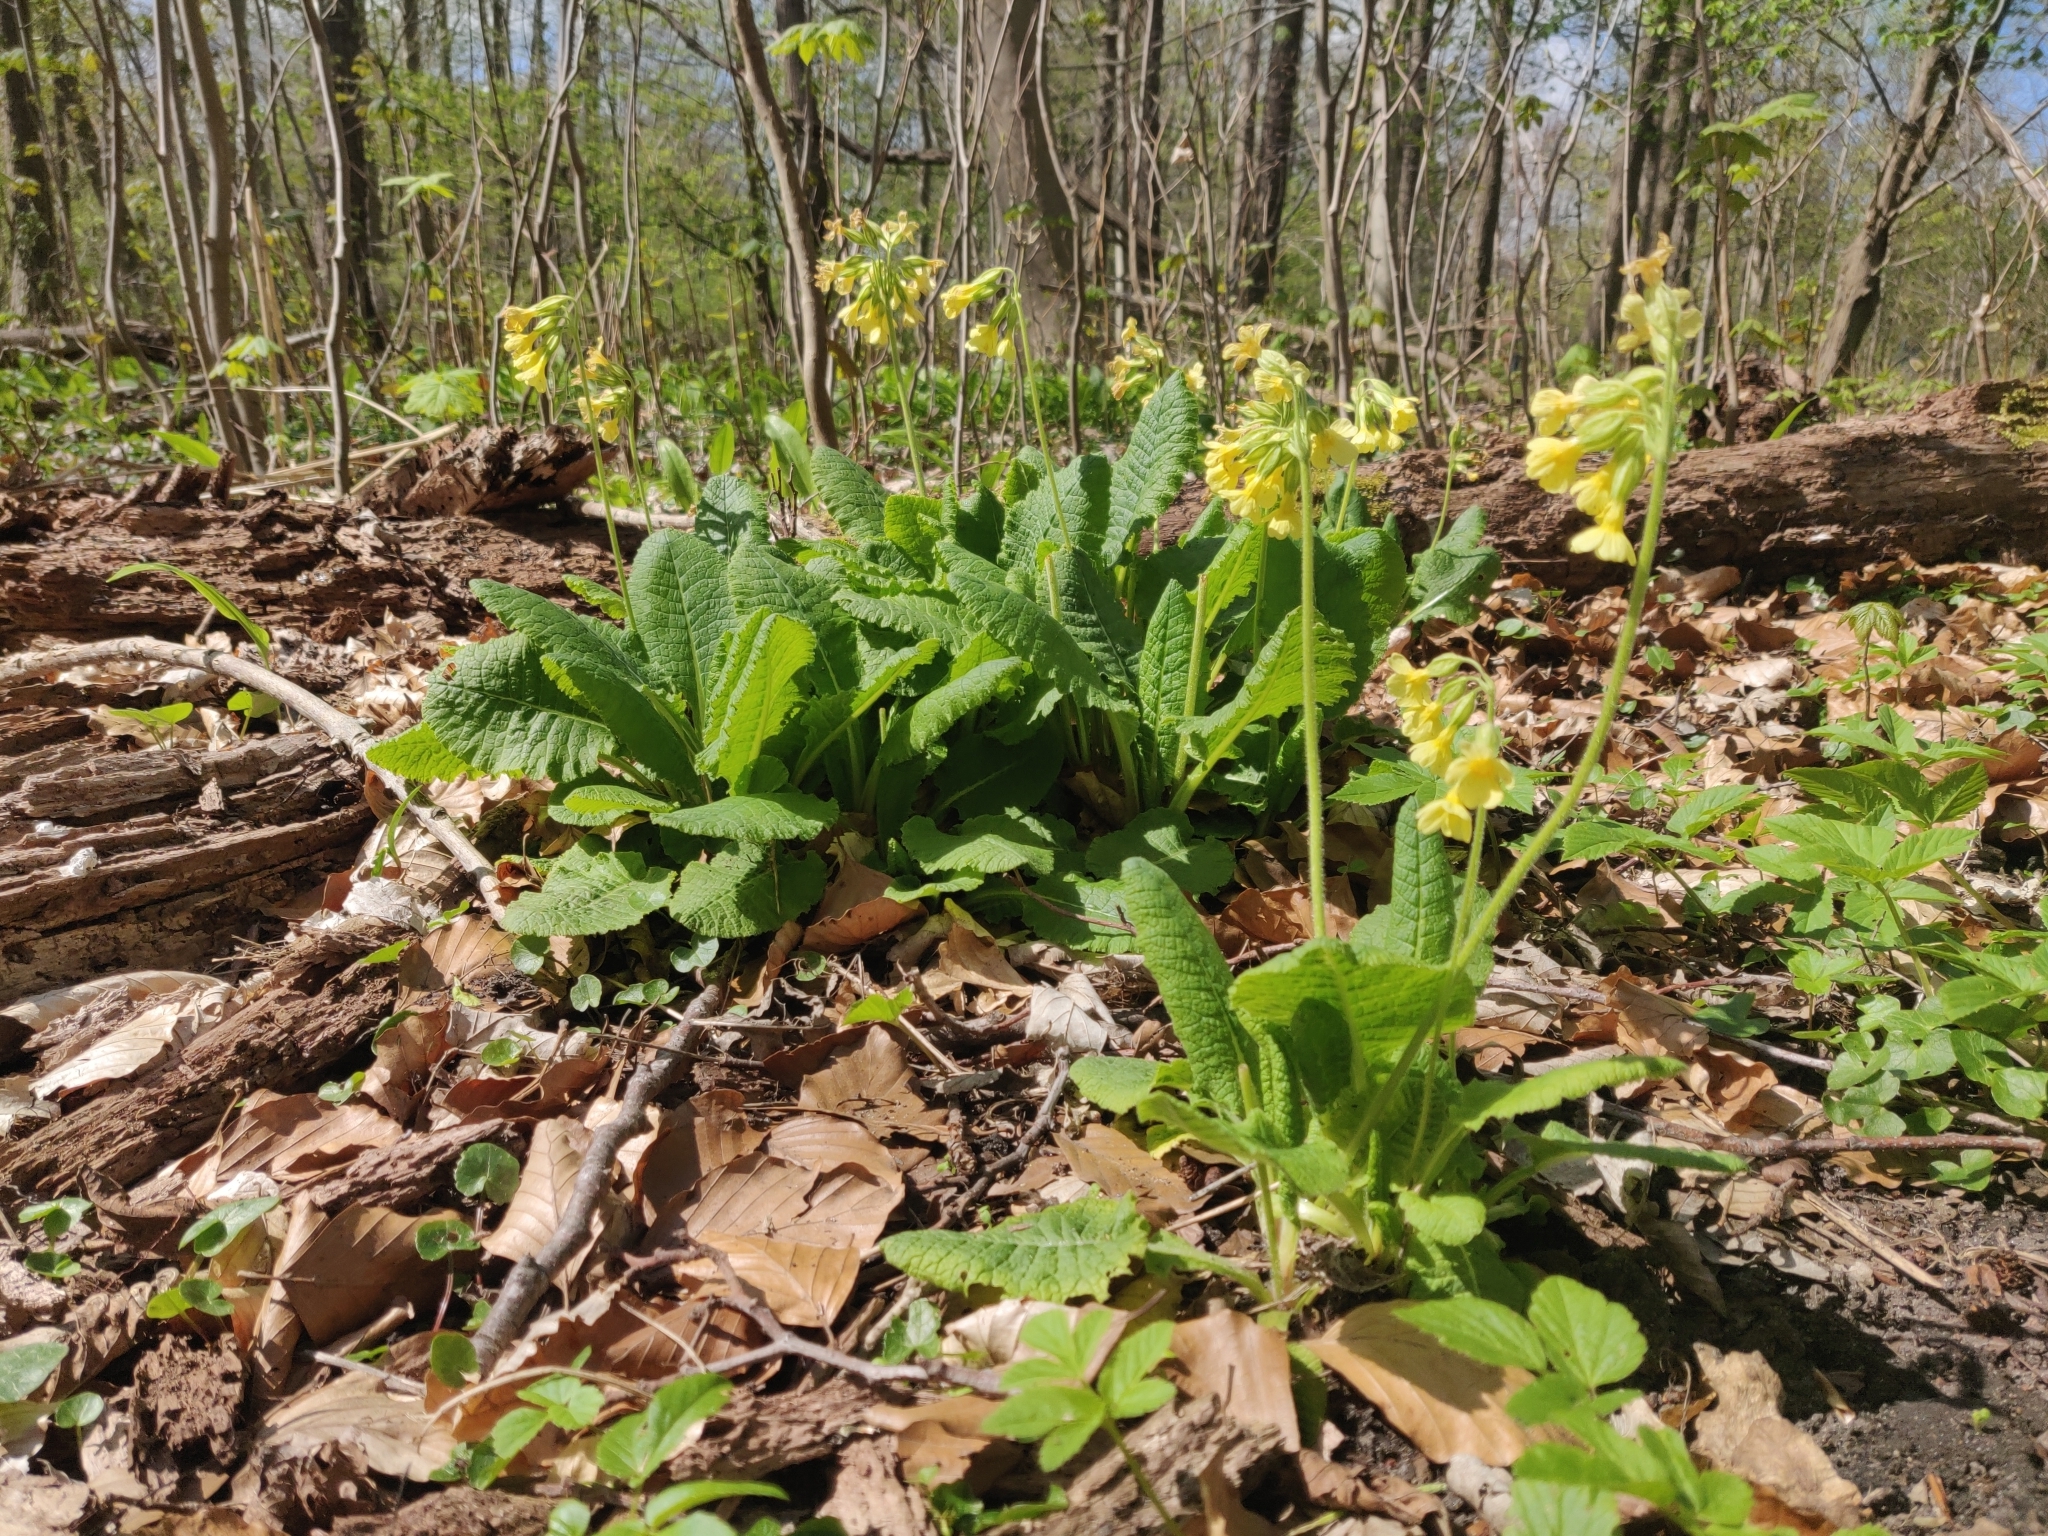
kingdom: Plantae
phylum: Tracheophyta
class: Magnoliopsida
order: Ericales
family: Primulaceae
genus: Primula
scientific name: Primula veris
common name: Cowslip
